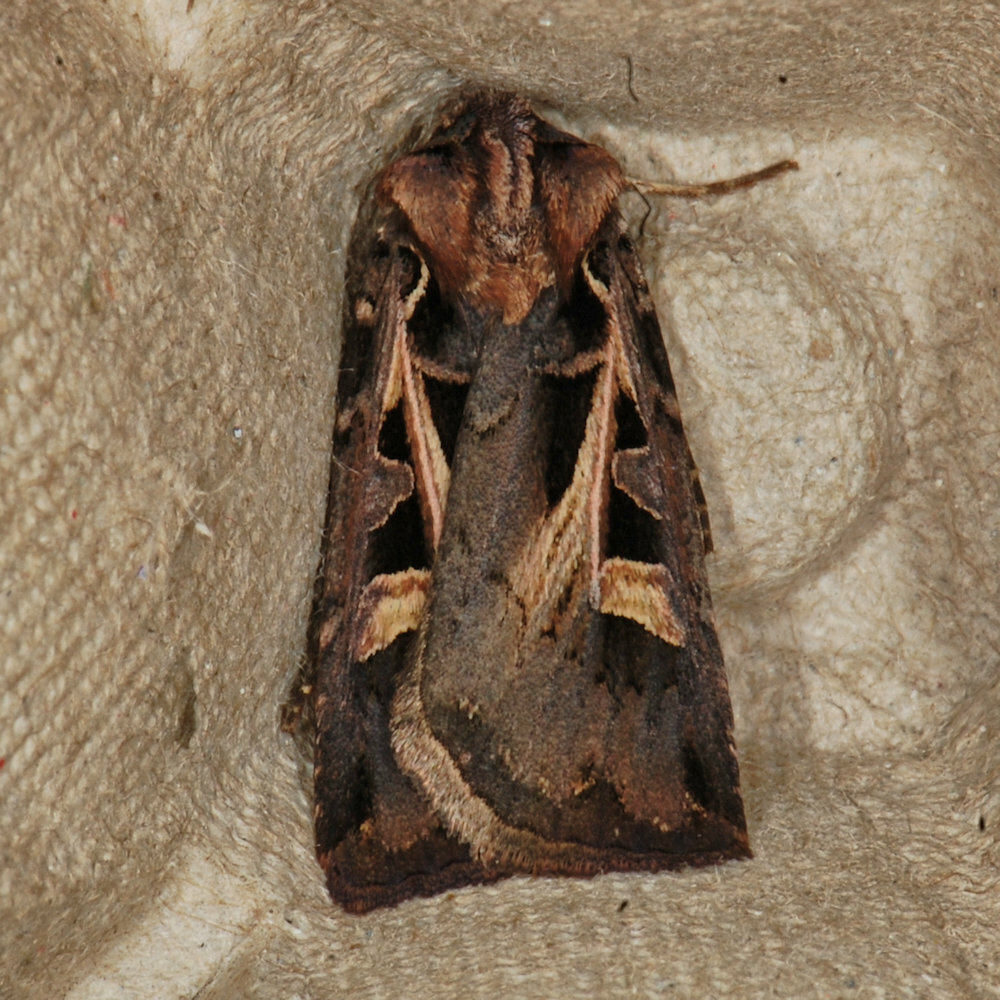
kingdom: Animalia
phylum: Arthropoda
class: Insecta
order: Lepidoptera
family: Noctuidae
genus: Feltia
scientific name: Feltia herilis
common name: Master's dart
